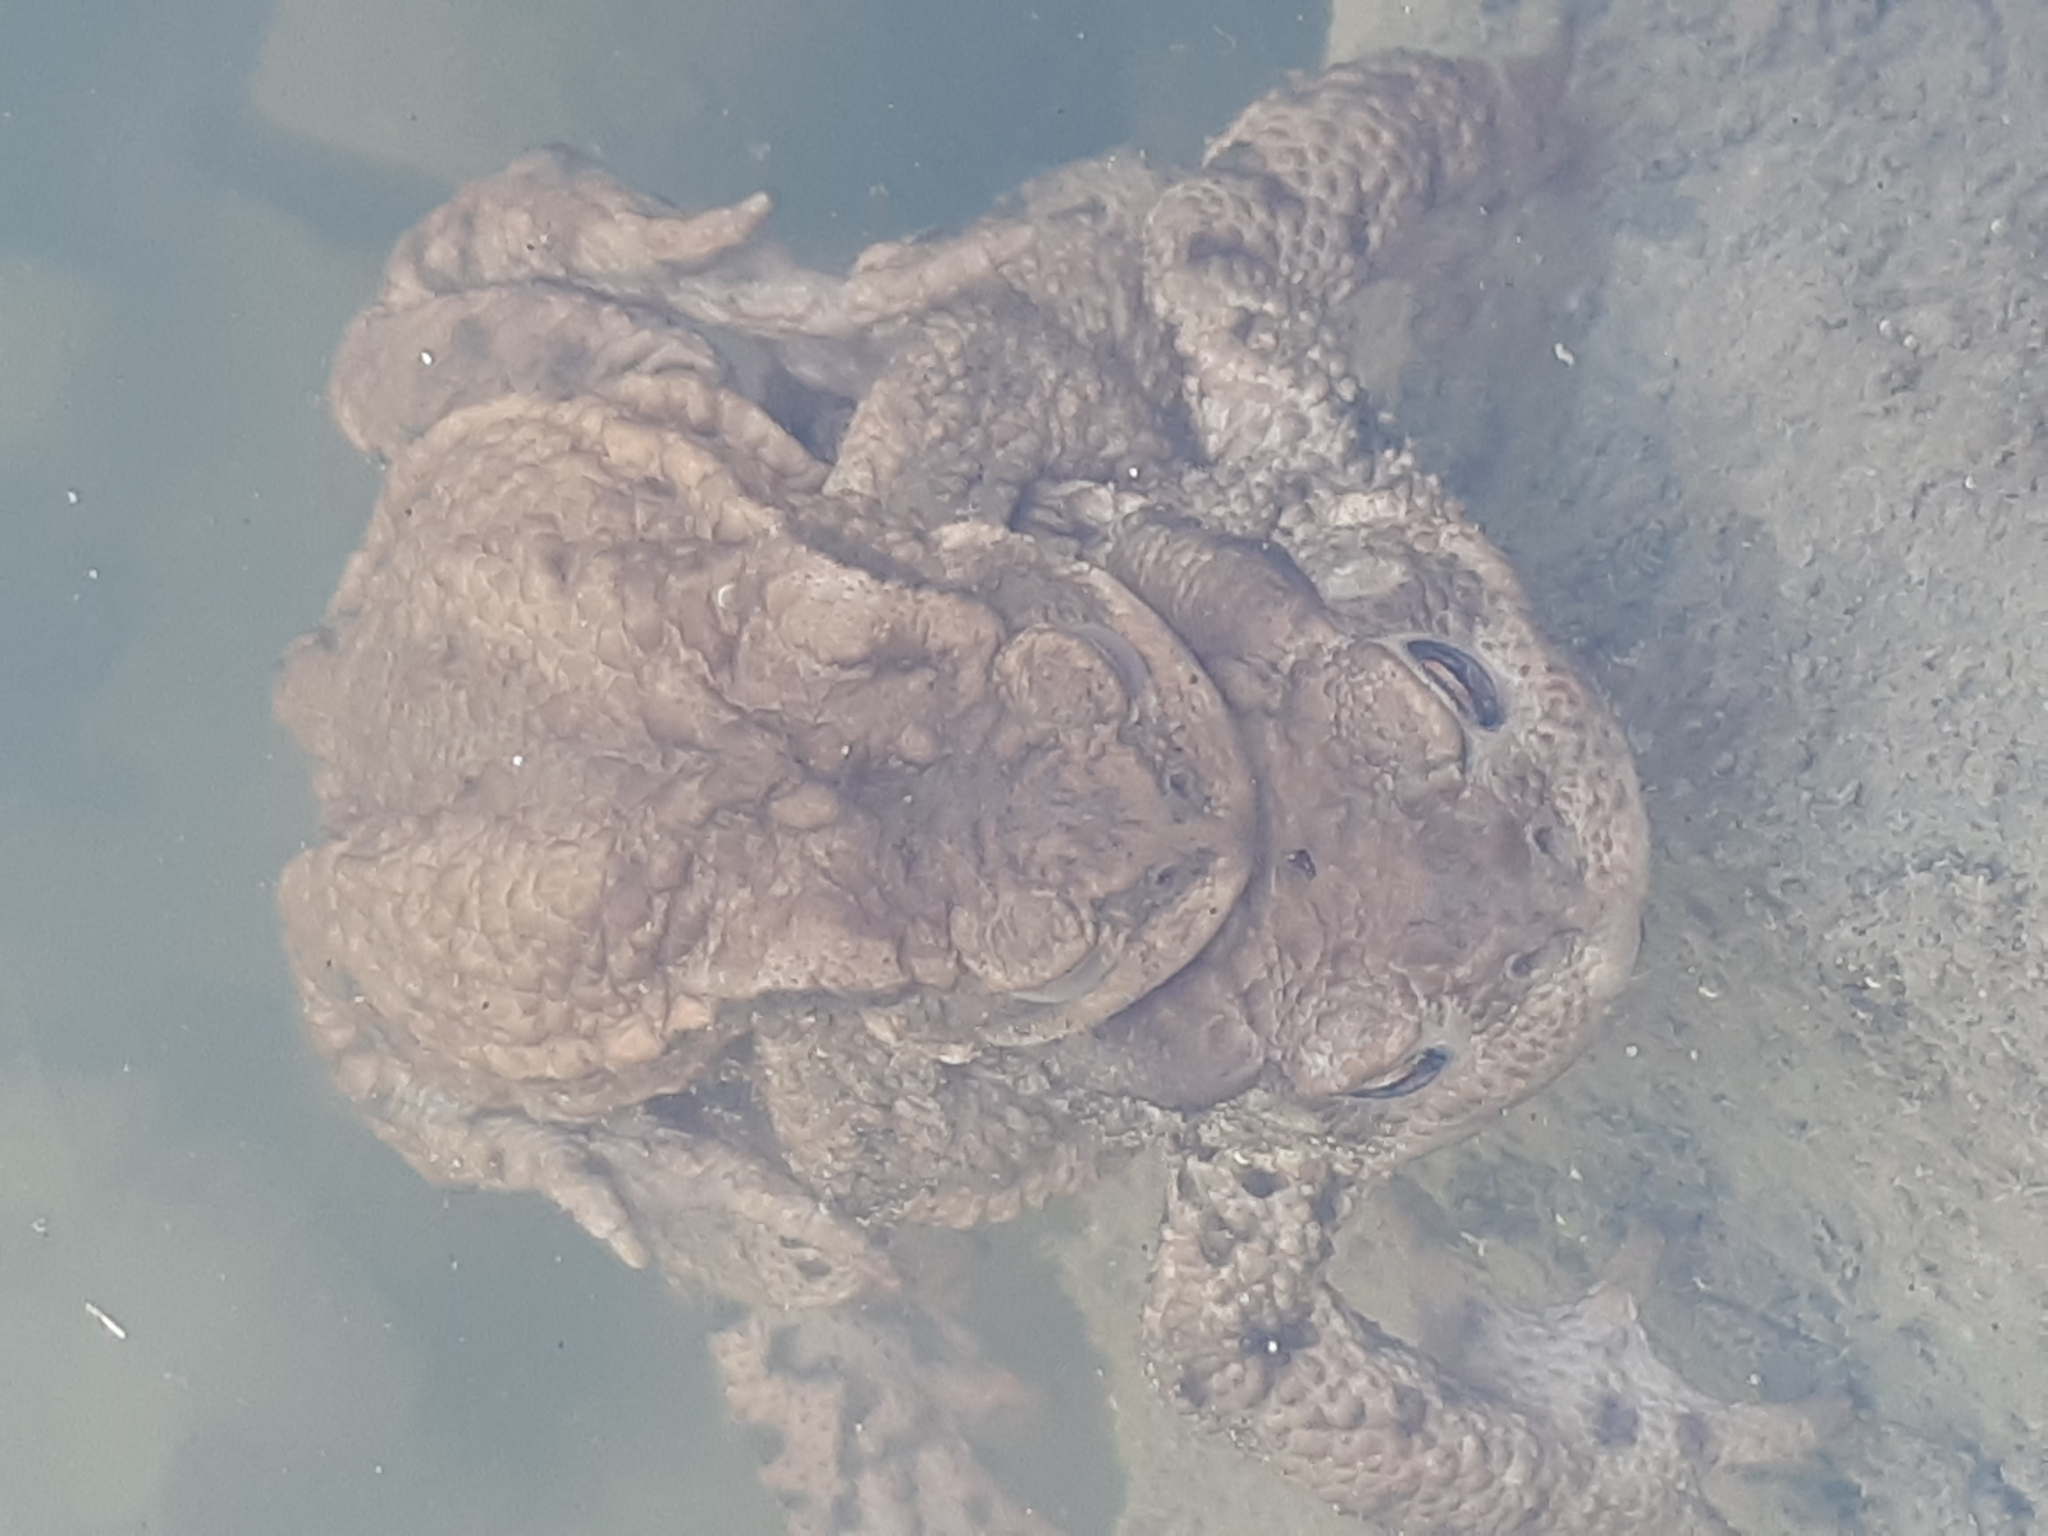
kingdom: Animalia
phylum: Chordata
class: Amphibia
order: Anura
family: Bufonidae
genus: Bufo
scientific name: Bufo bufo
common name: Common toad
